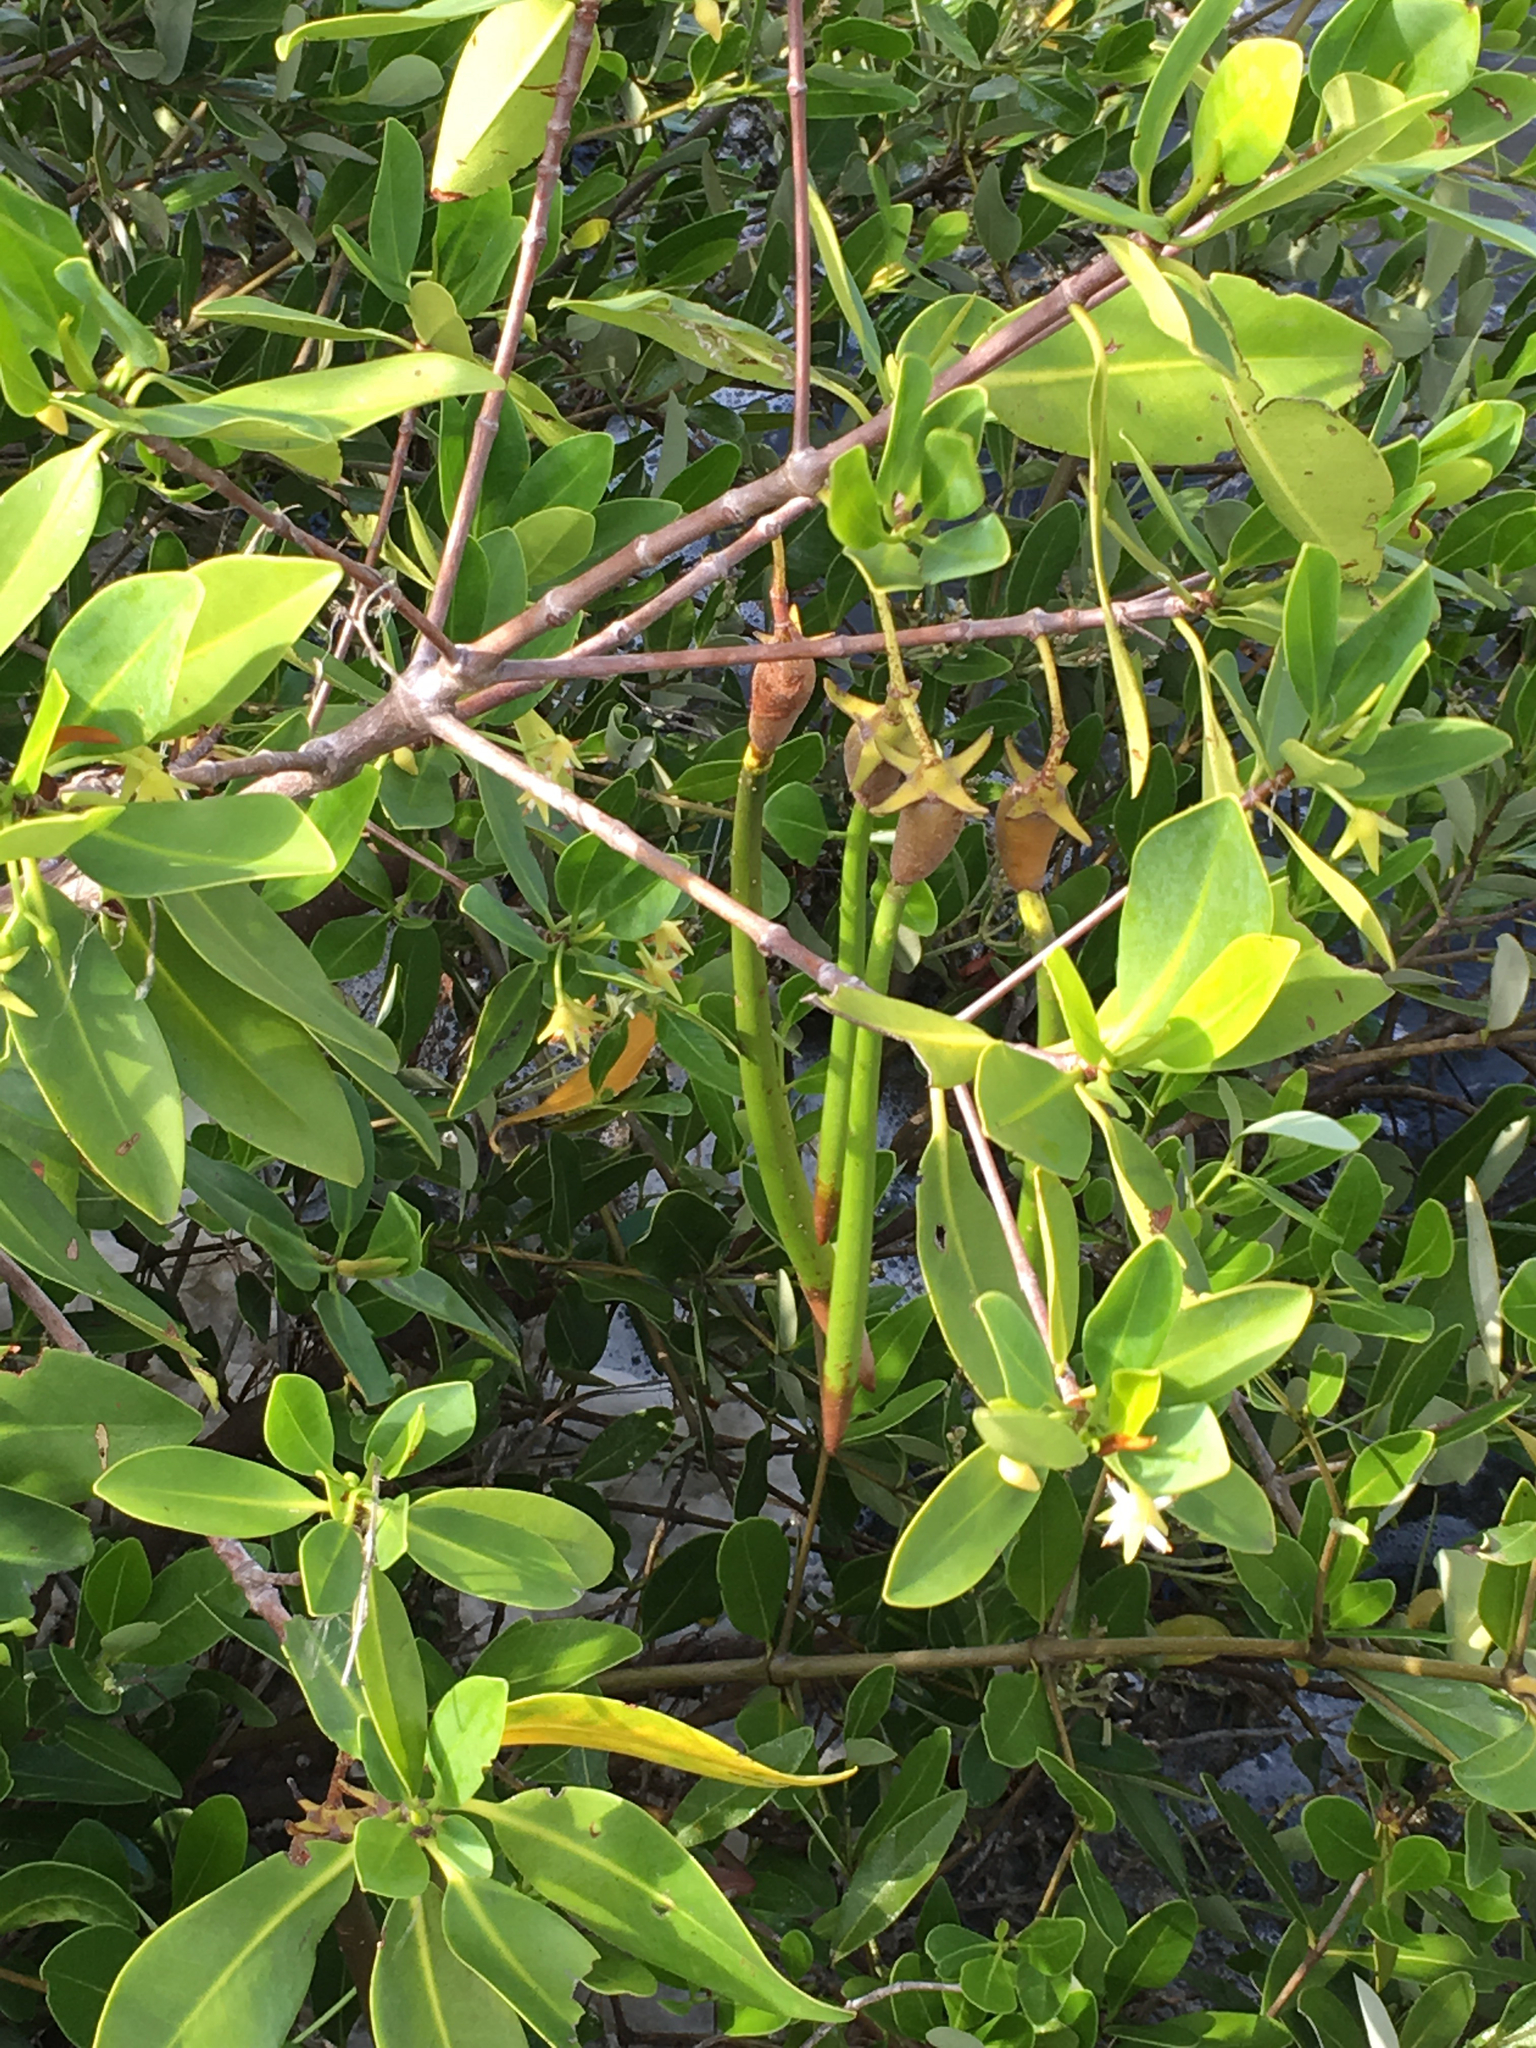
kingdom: Plantae
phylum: Tracheophyta
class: Magnoliopsida
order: Malpighiales
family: Rhizophoraceae
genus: Rhizophora
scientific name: Rhizophora mangle
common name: Red mangrove
